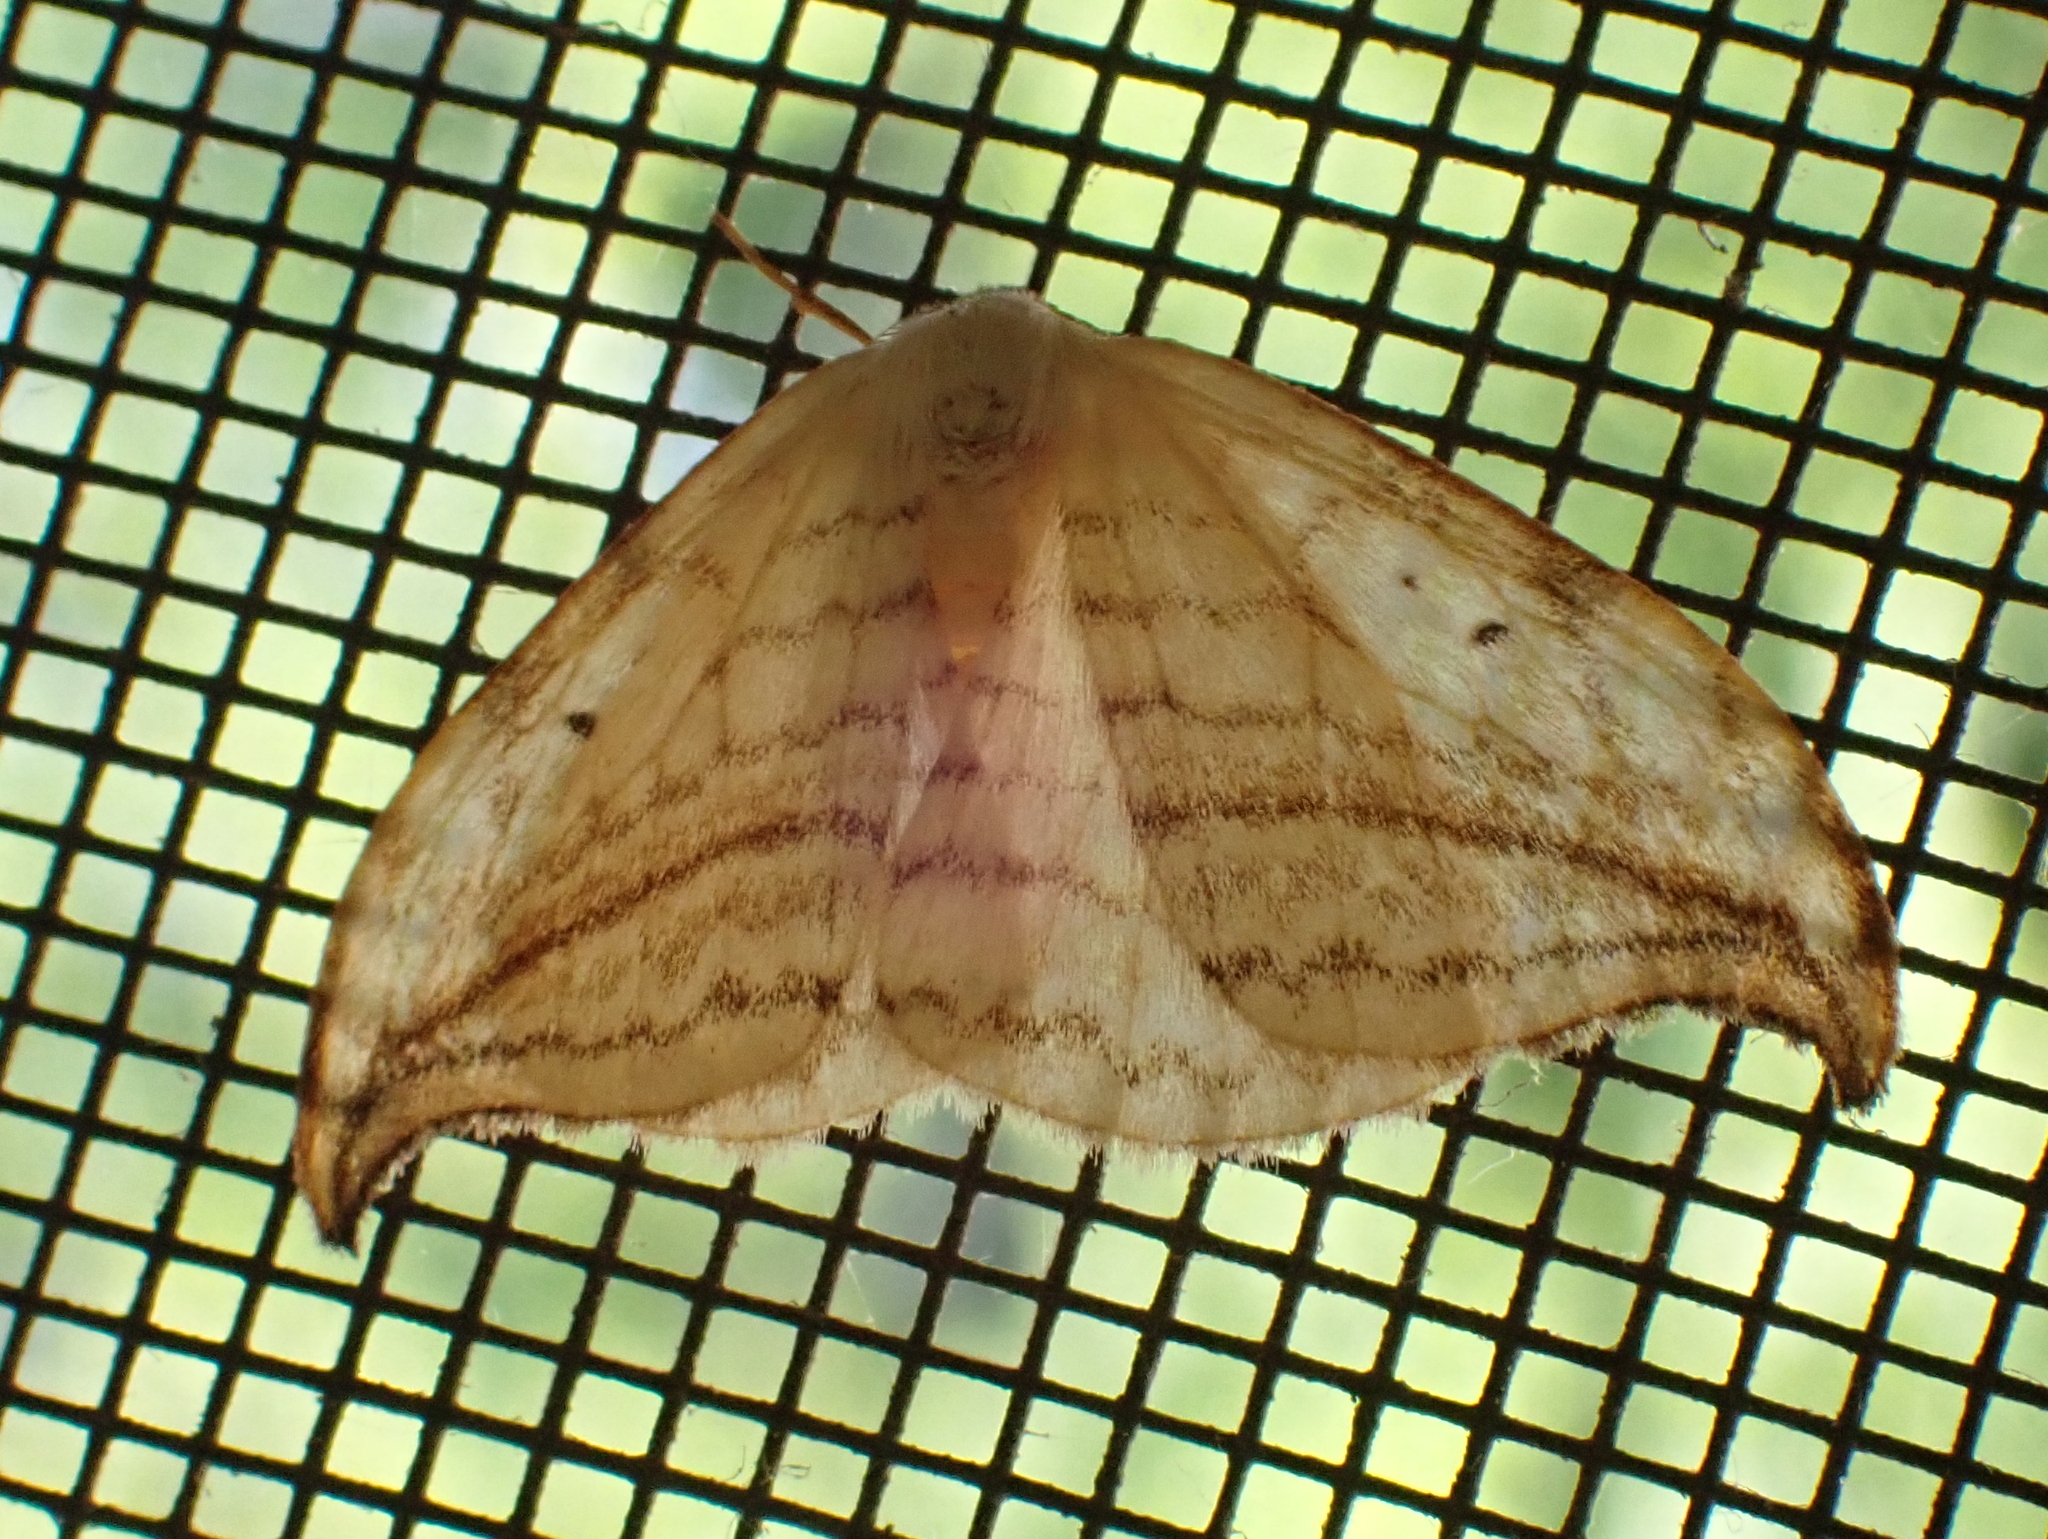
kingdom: Animalia
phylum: Arthropoda
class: Insecta
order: Lepidoptera
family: Drepanidae
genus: Drepana
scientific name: Drepana arcuata
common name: Arched hooktip moth
